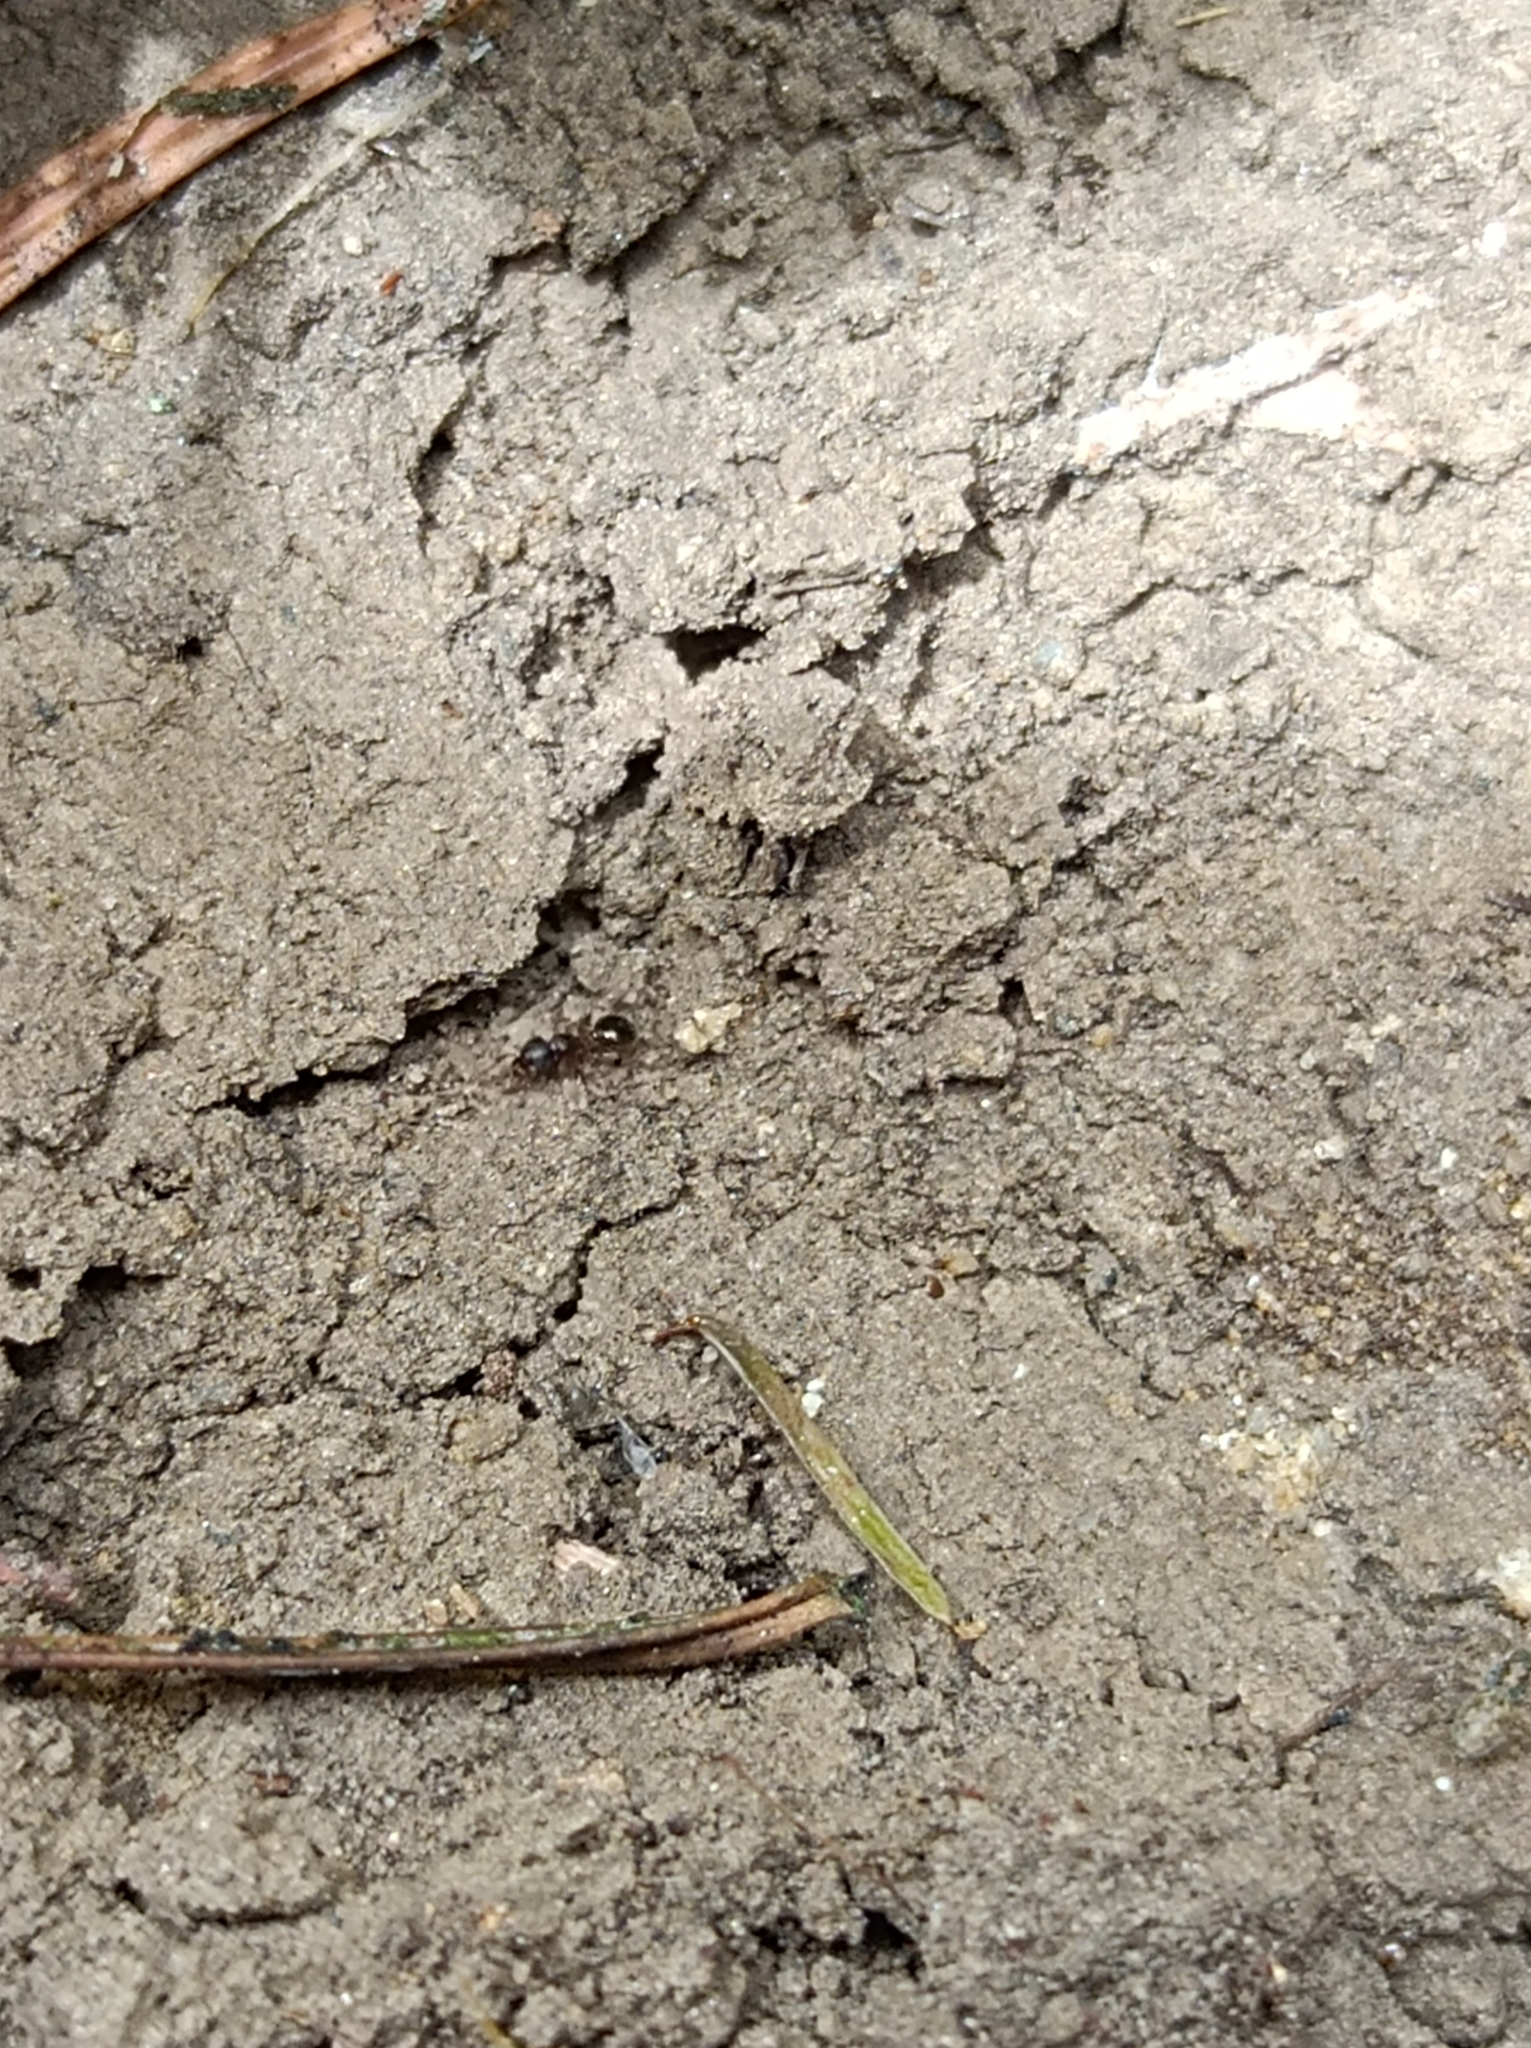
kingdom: Animalia
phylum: Arthropoda
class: Insecta
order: Hymenoptera
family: Formicidae
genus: Myrmecina
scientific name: Myrmecina graminicola
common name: Grass ant
